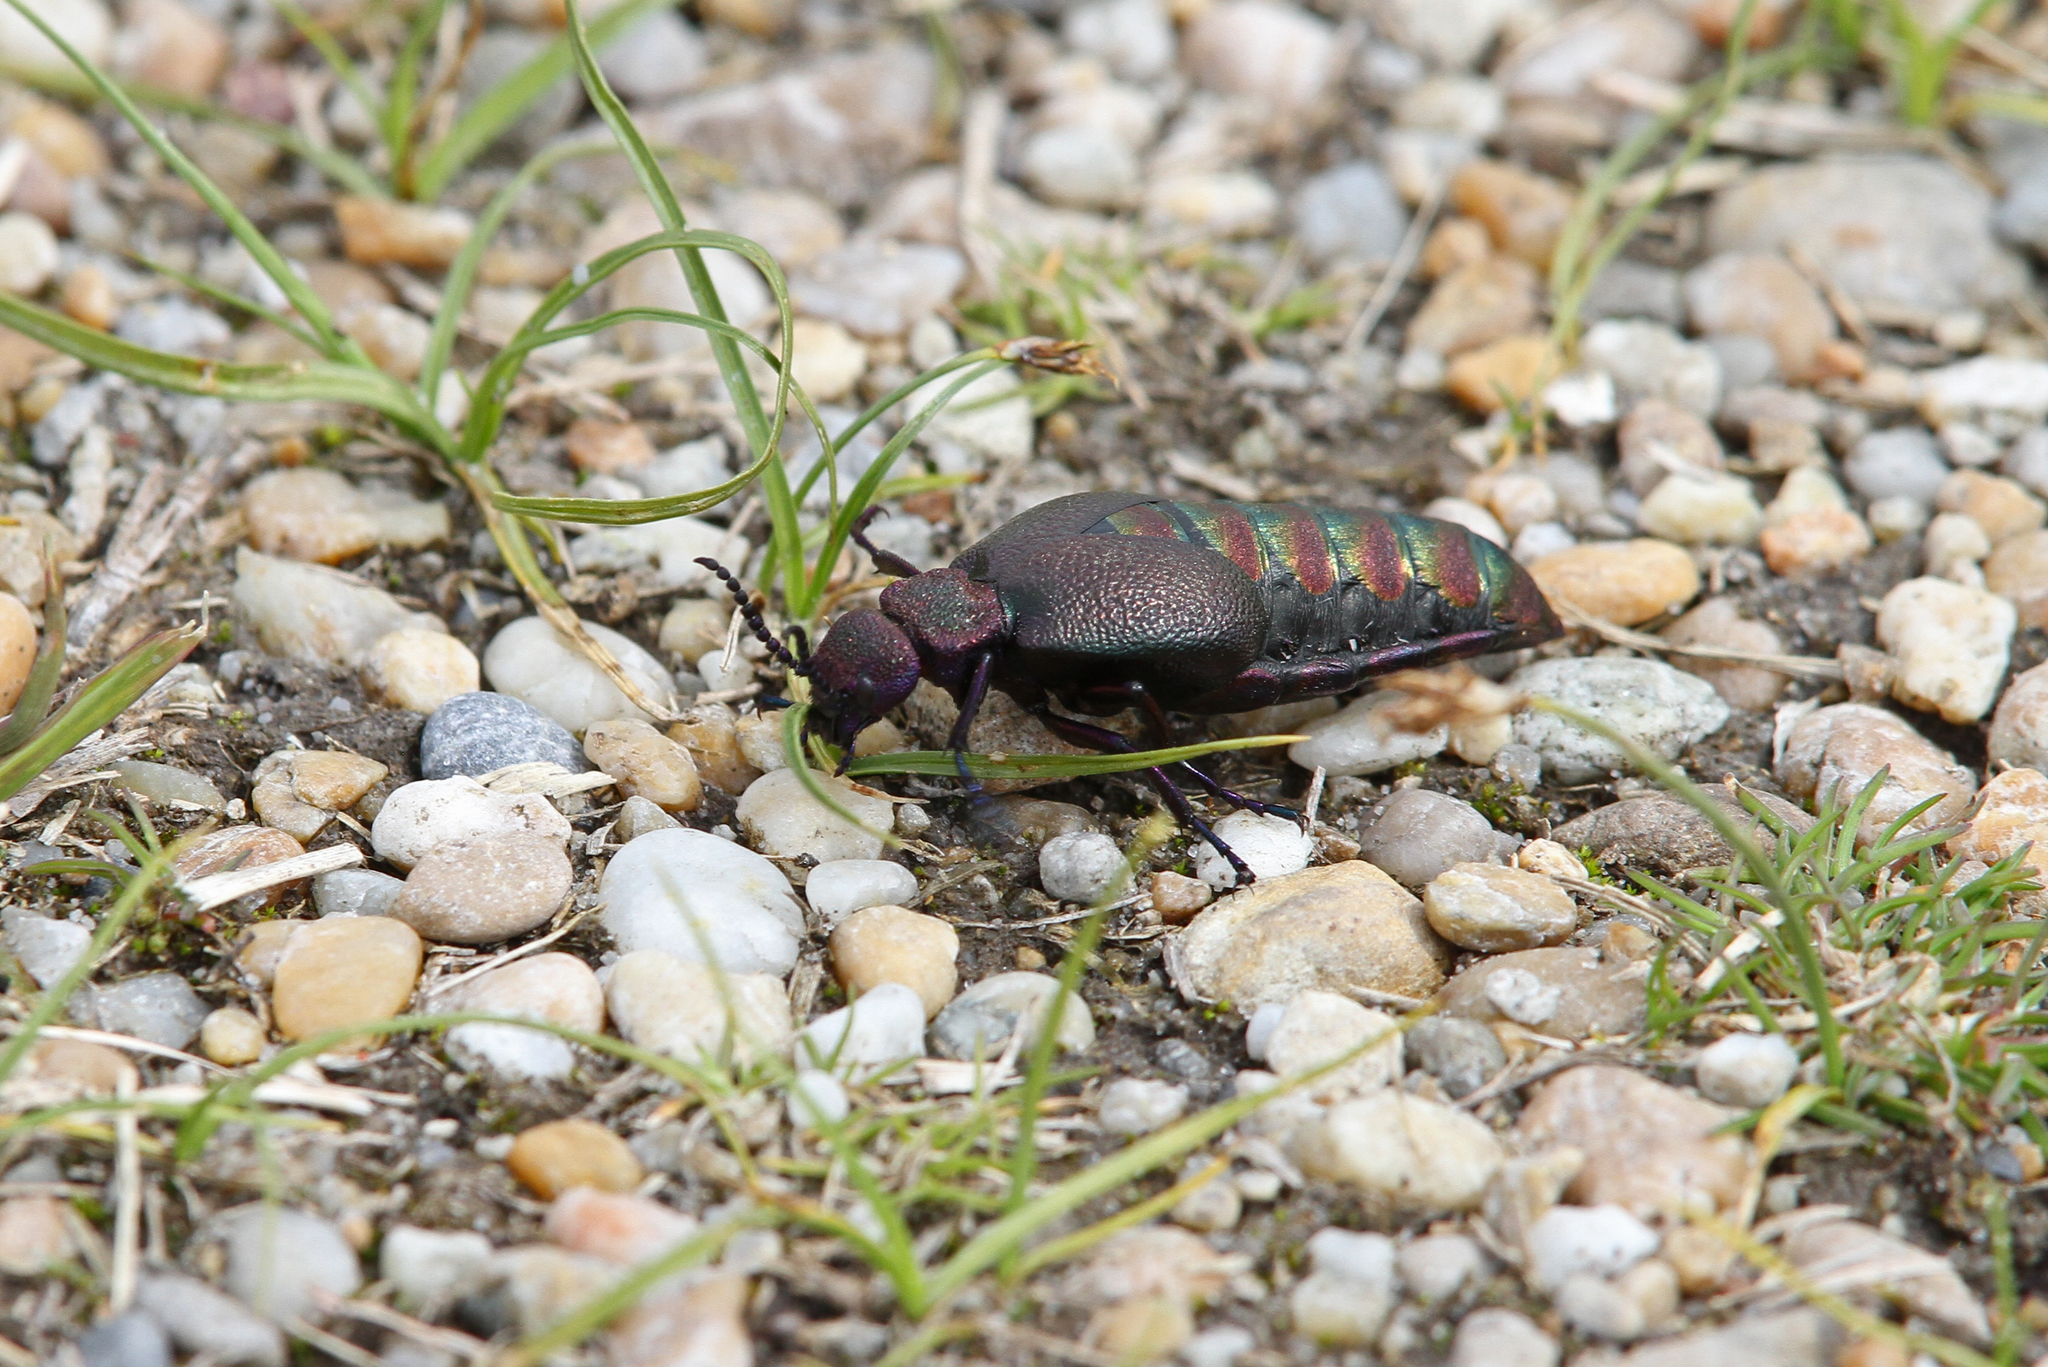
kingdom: Animalia
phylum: Arthropoda
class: Insecta
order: Coleoptera
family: Meloidae
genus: Meloe
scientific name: Meloe variegatus
